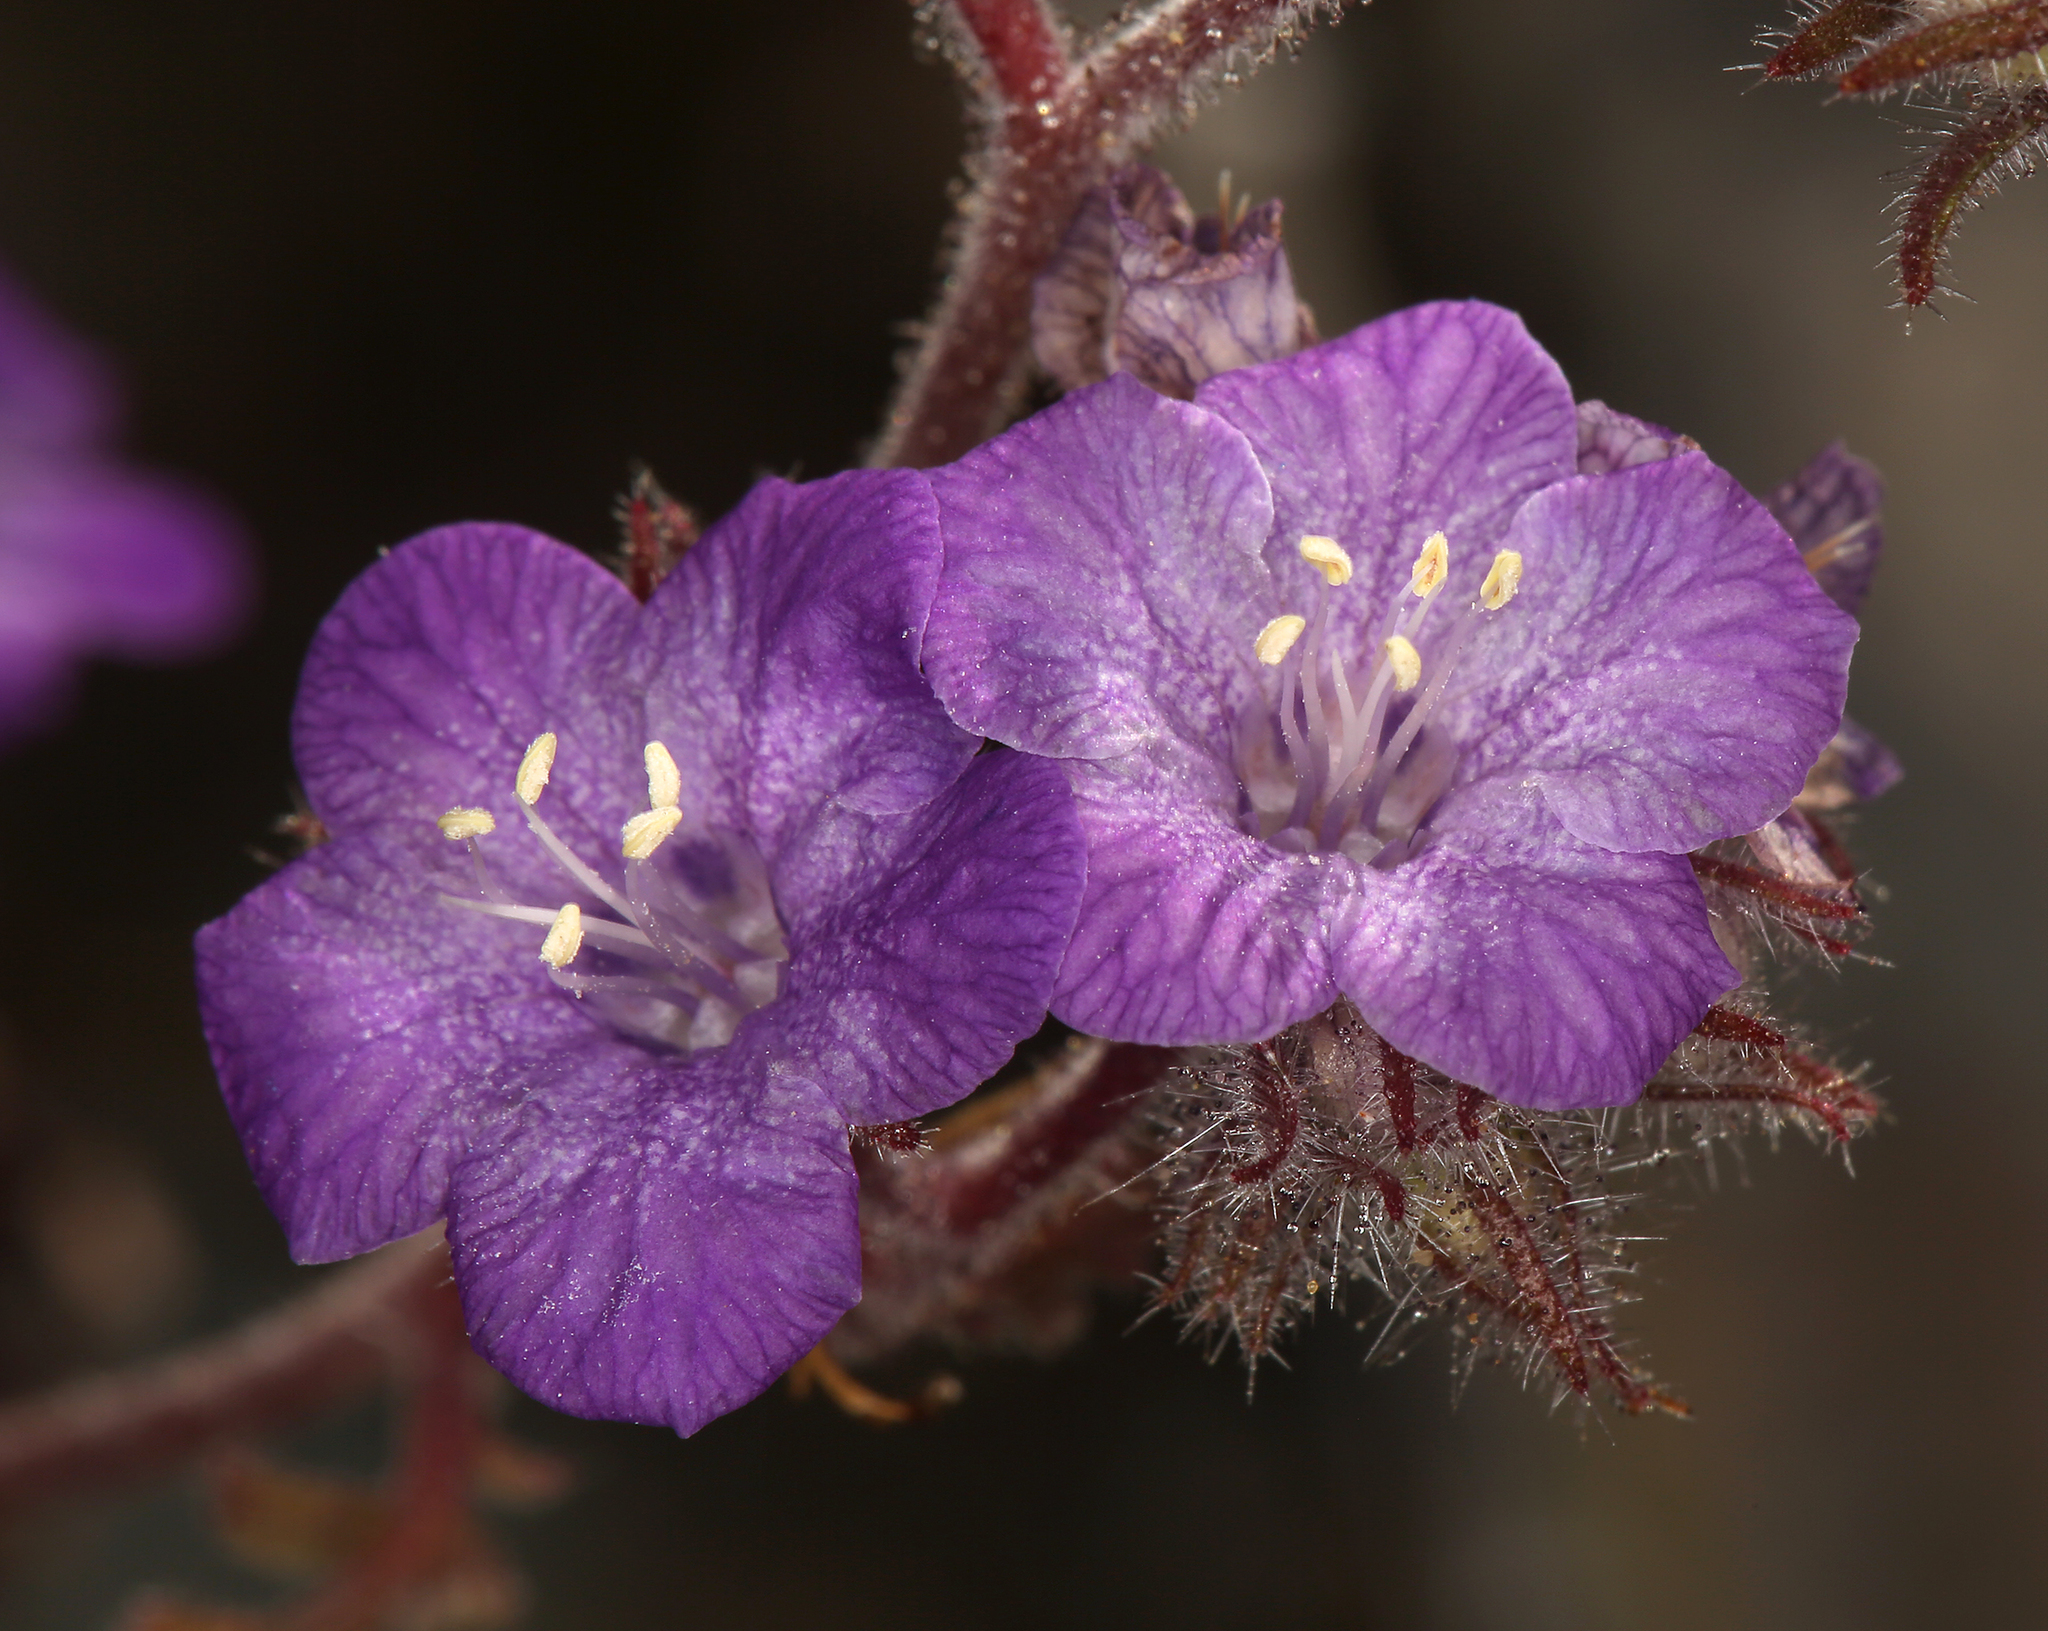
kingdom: Plantae
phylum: Tracheophyta
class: Magnoliopsida
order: Boraginales
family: Hydrophyllaceae
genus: Phacelia
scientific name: Phacelia vallis-mortae
